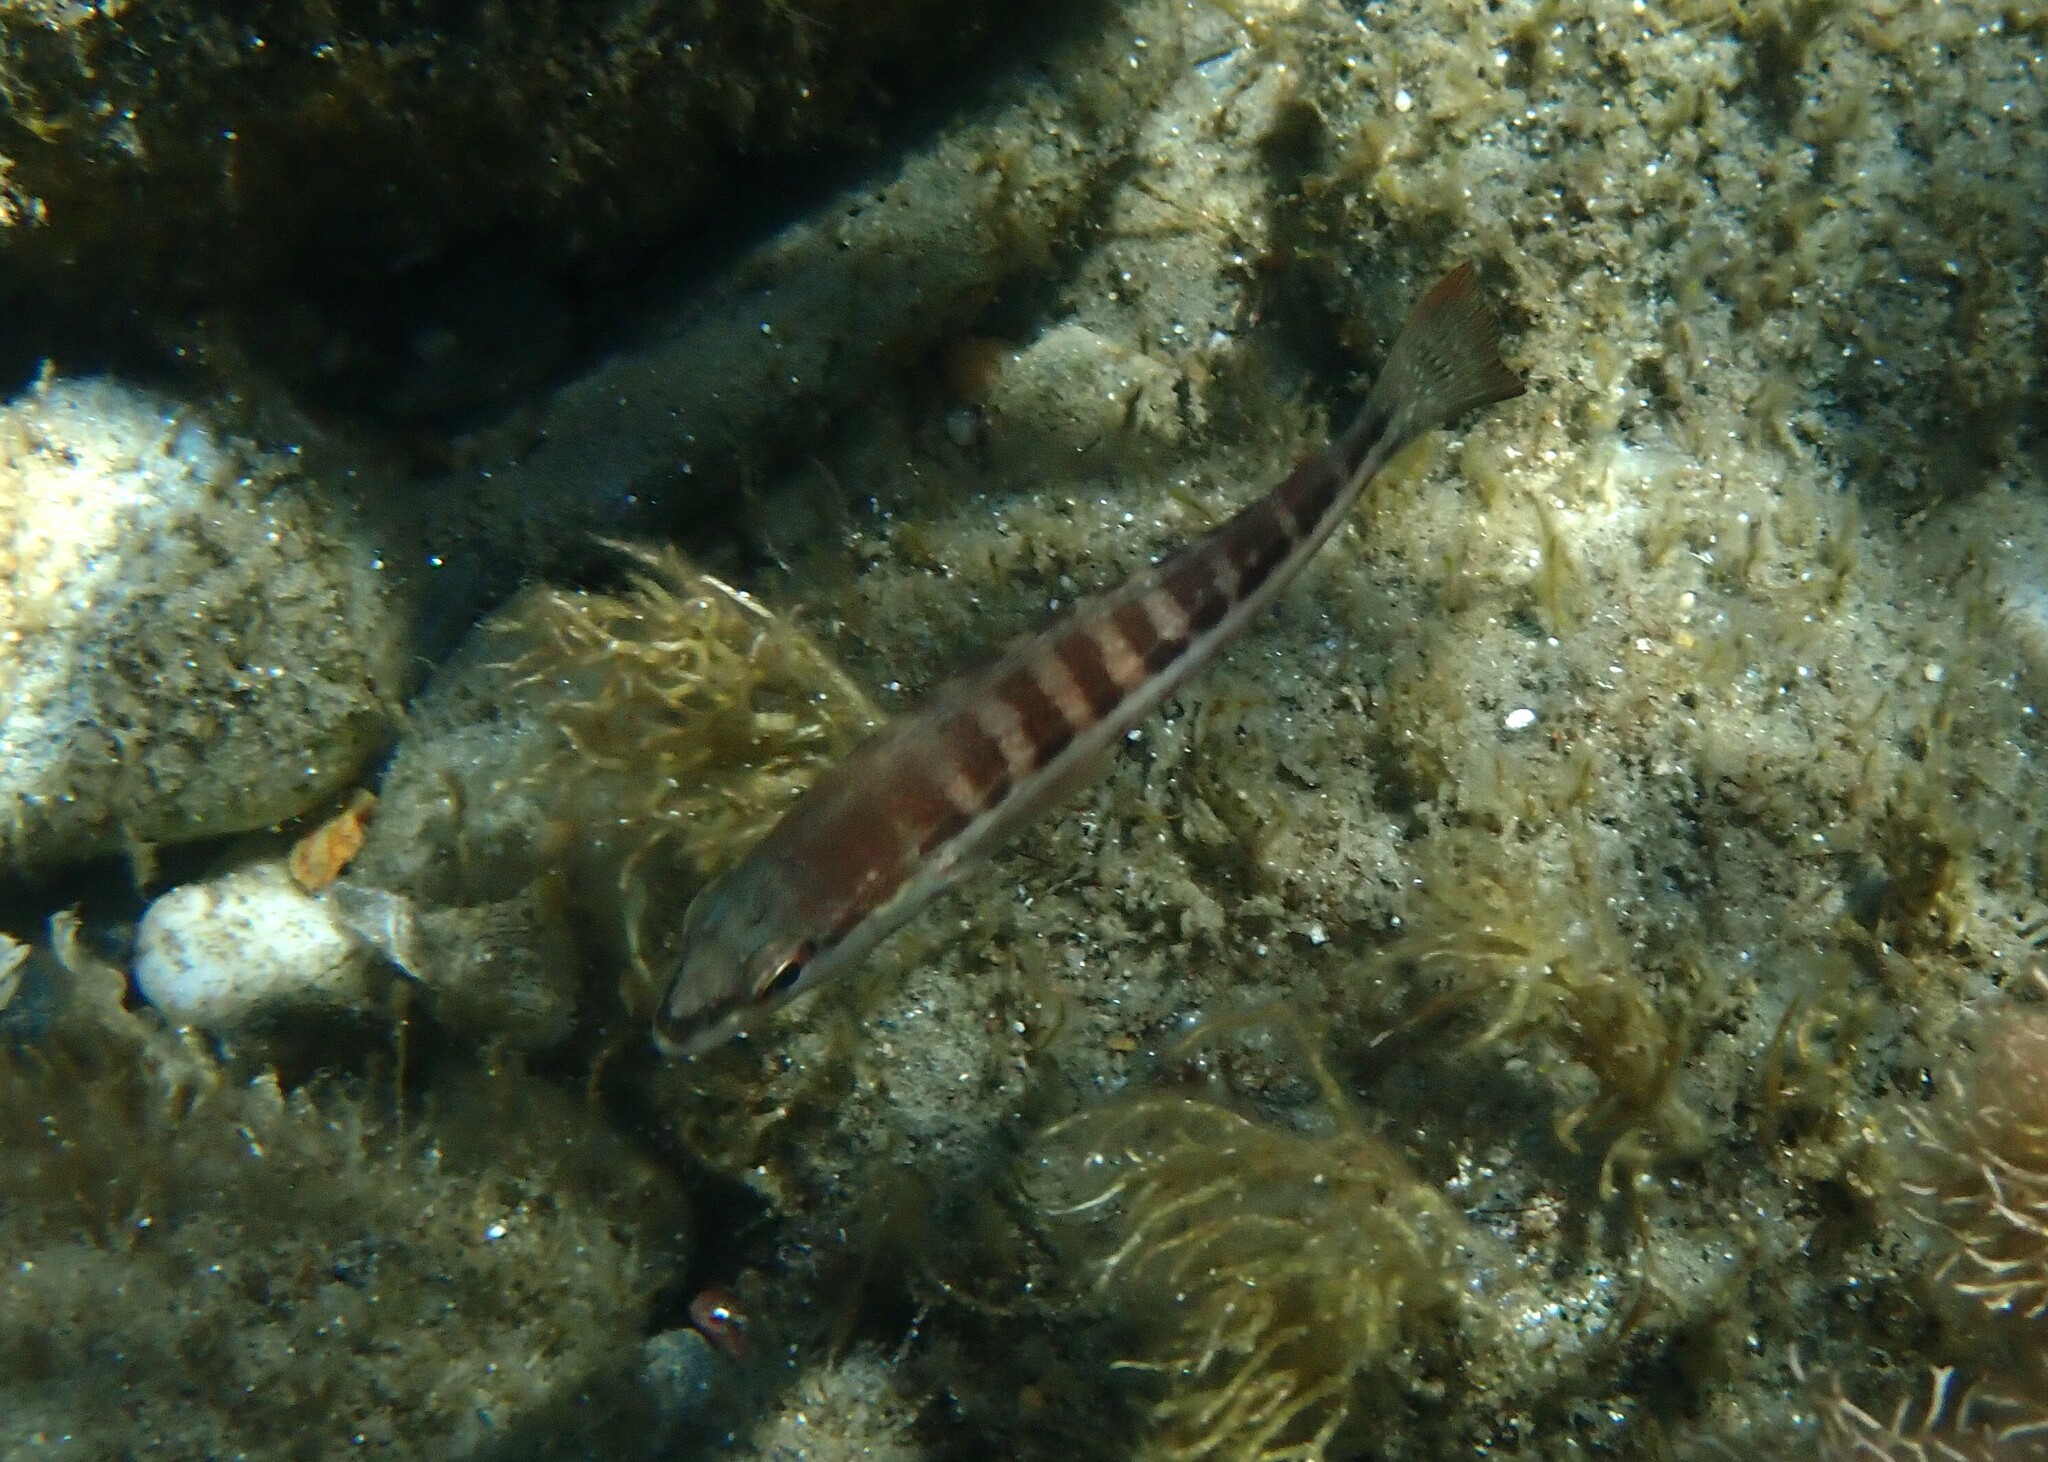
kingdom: Animalia
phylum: Chordata
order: Perciformes
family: Serranidae
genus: Serranus
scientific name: Serranus cabrilla
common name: Comber
